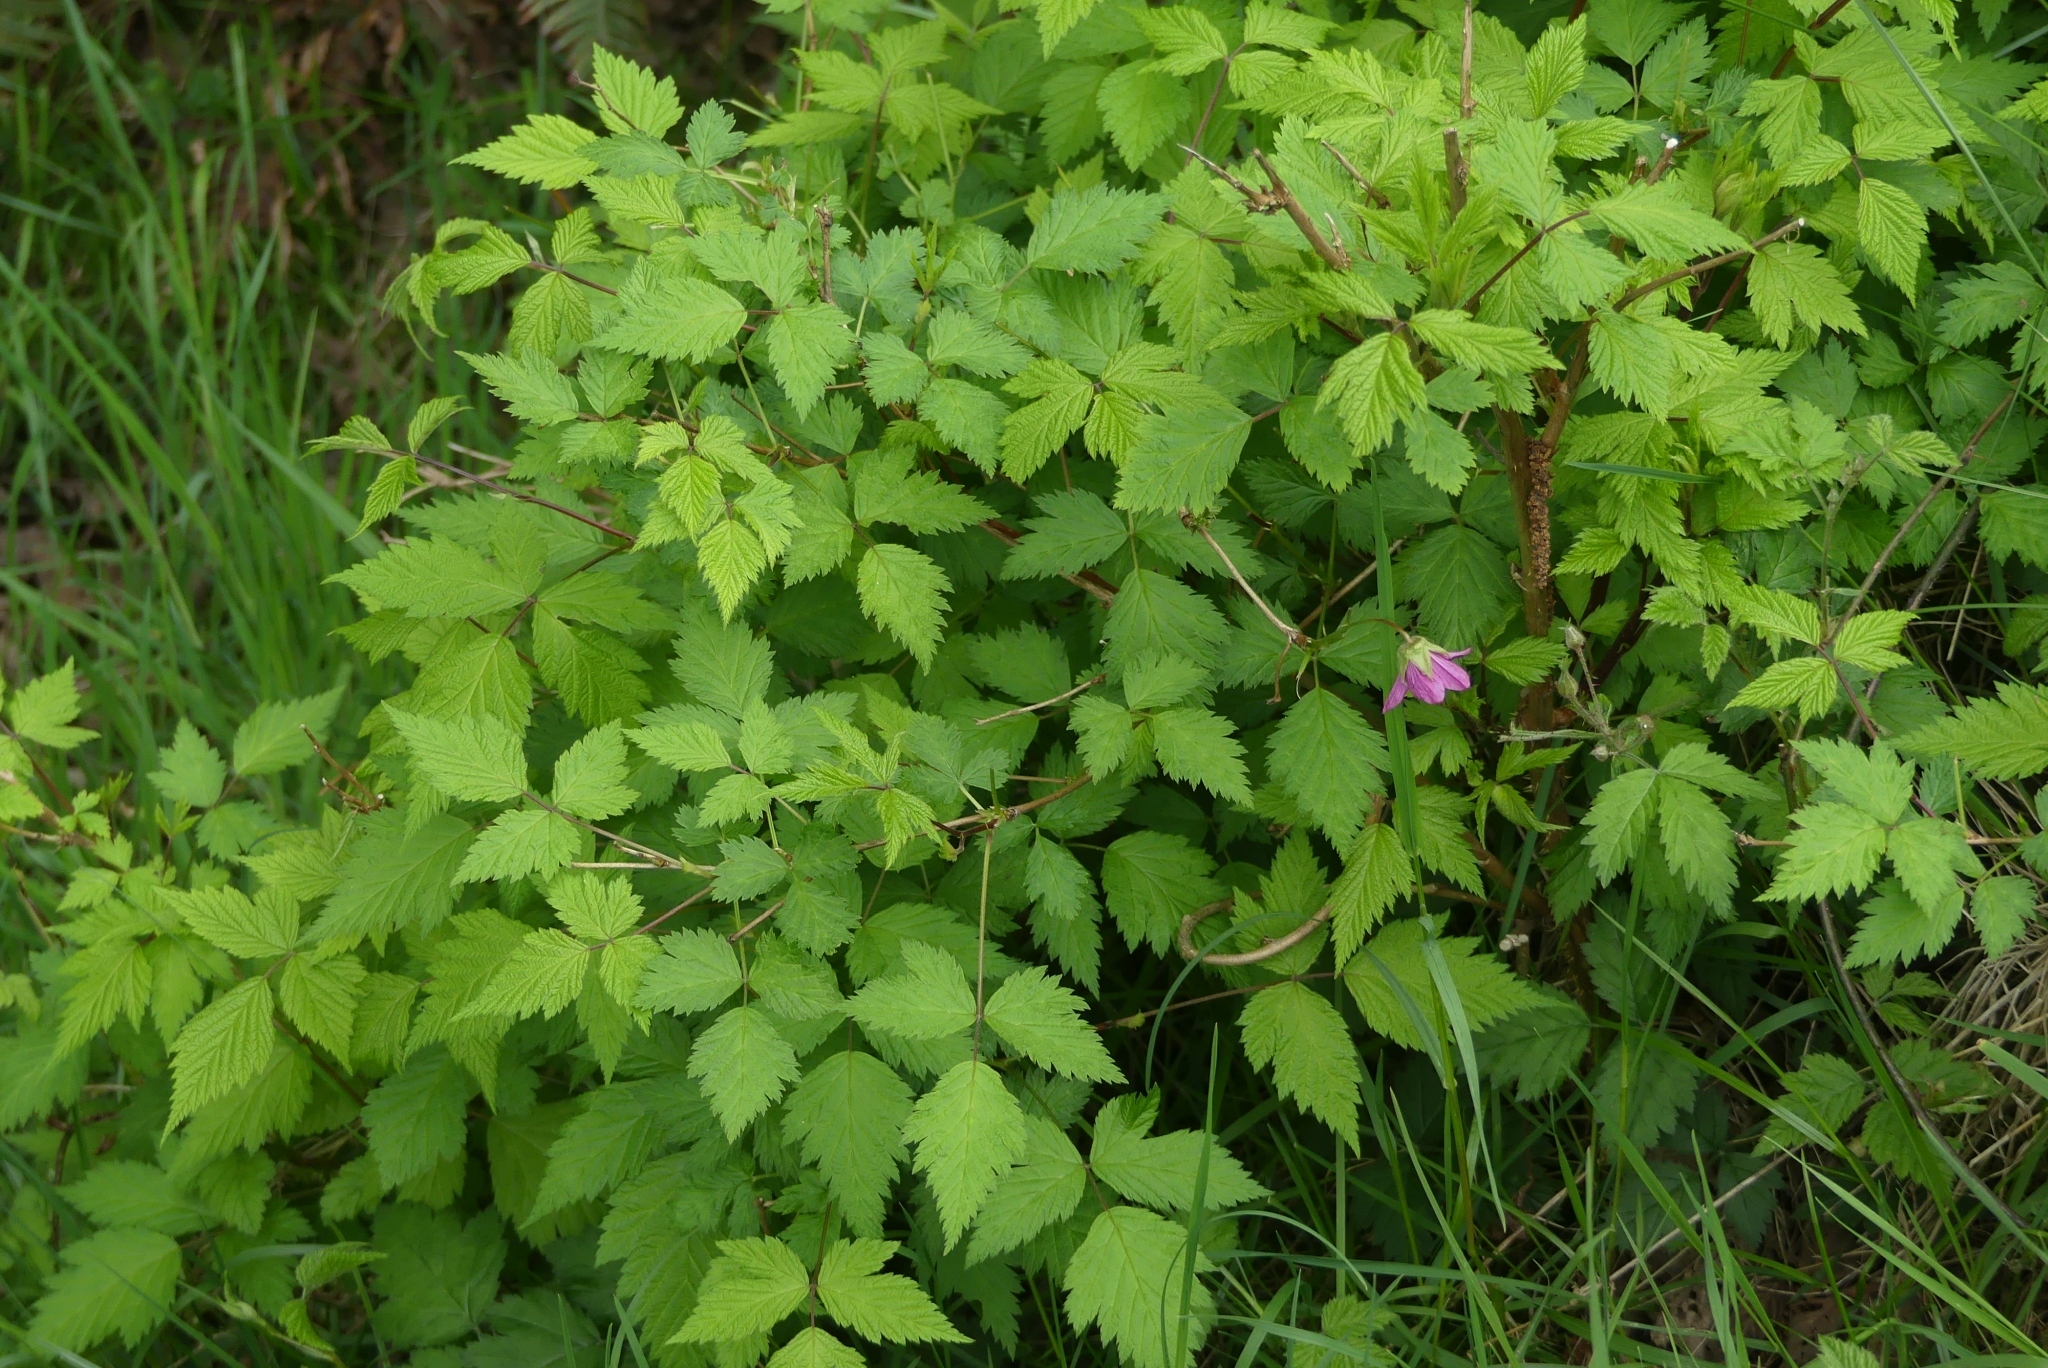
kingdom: Plantae
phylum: Tracheophyta
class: Magnoliopsida
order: Rosales
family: Rosaceae
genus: Rubus
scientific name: Rubus spectabilis
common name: Salmonberry
